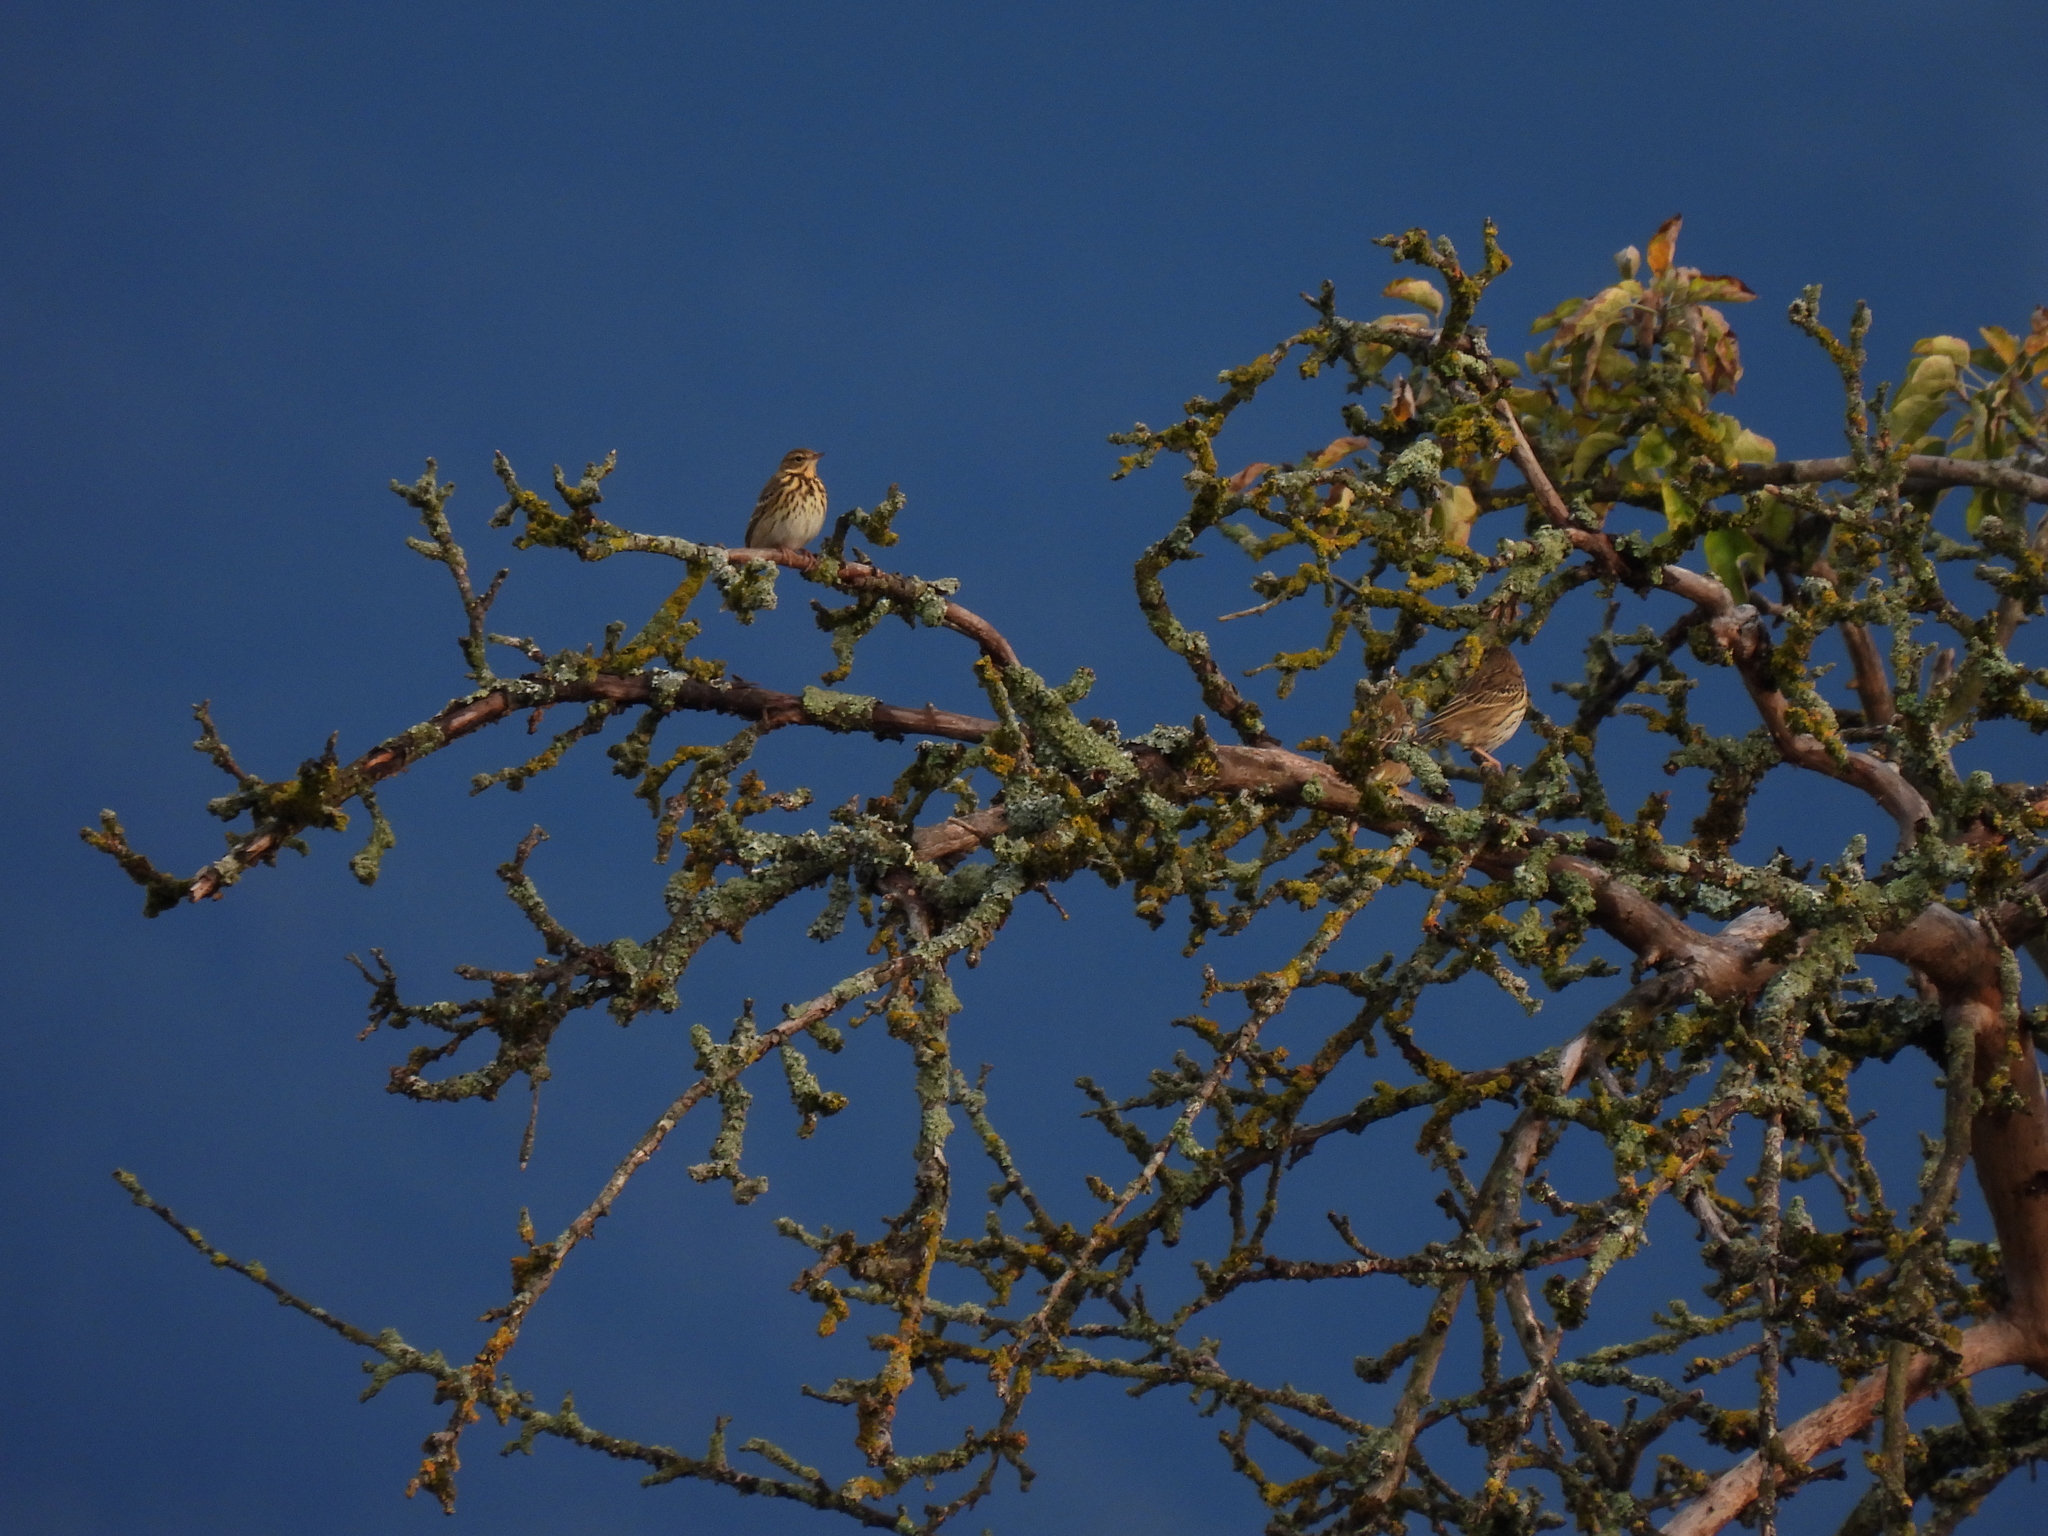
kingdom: Animalia
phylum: Chordata
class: Aves
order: Passeriformes
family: Motacillidae
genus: Anthus
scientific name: Anthus trivialis
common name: Tree pipit
